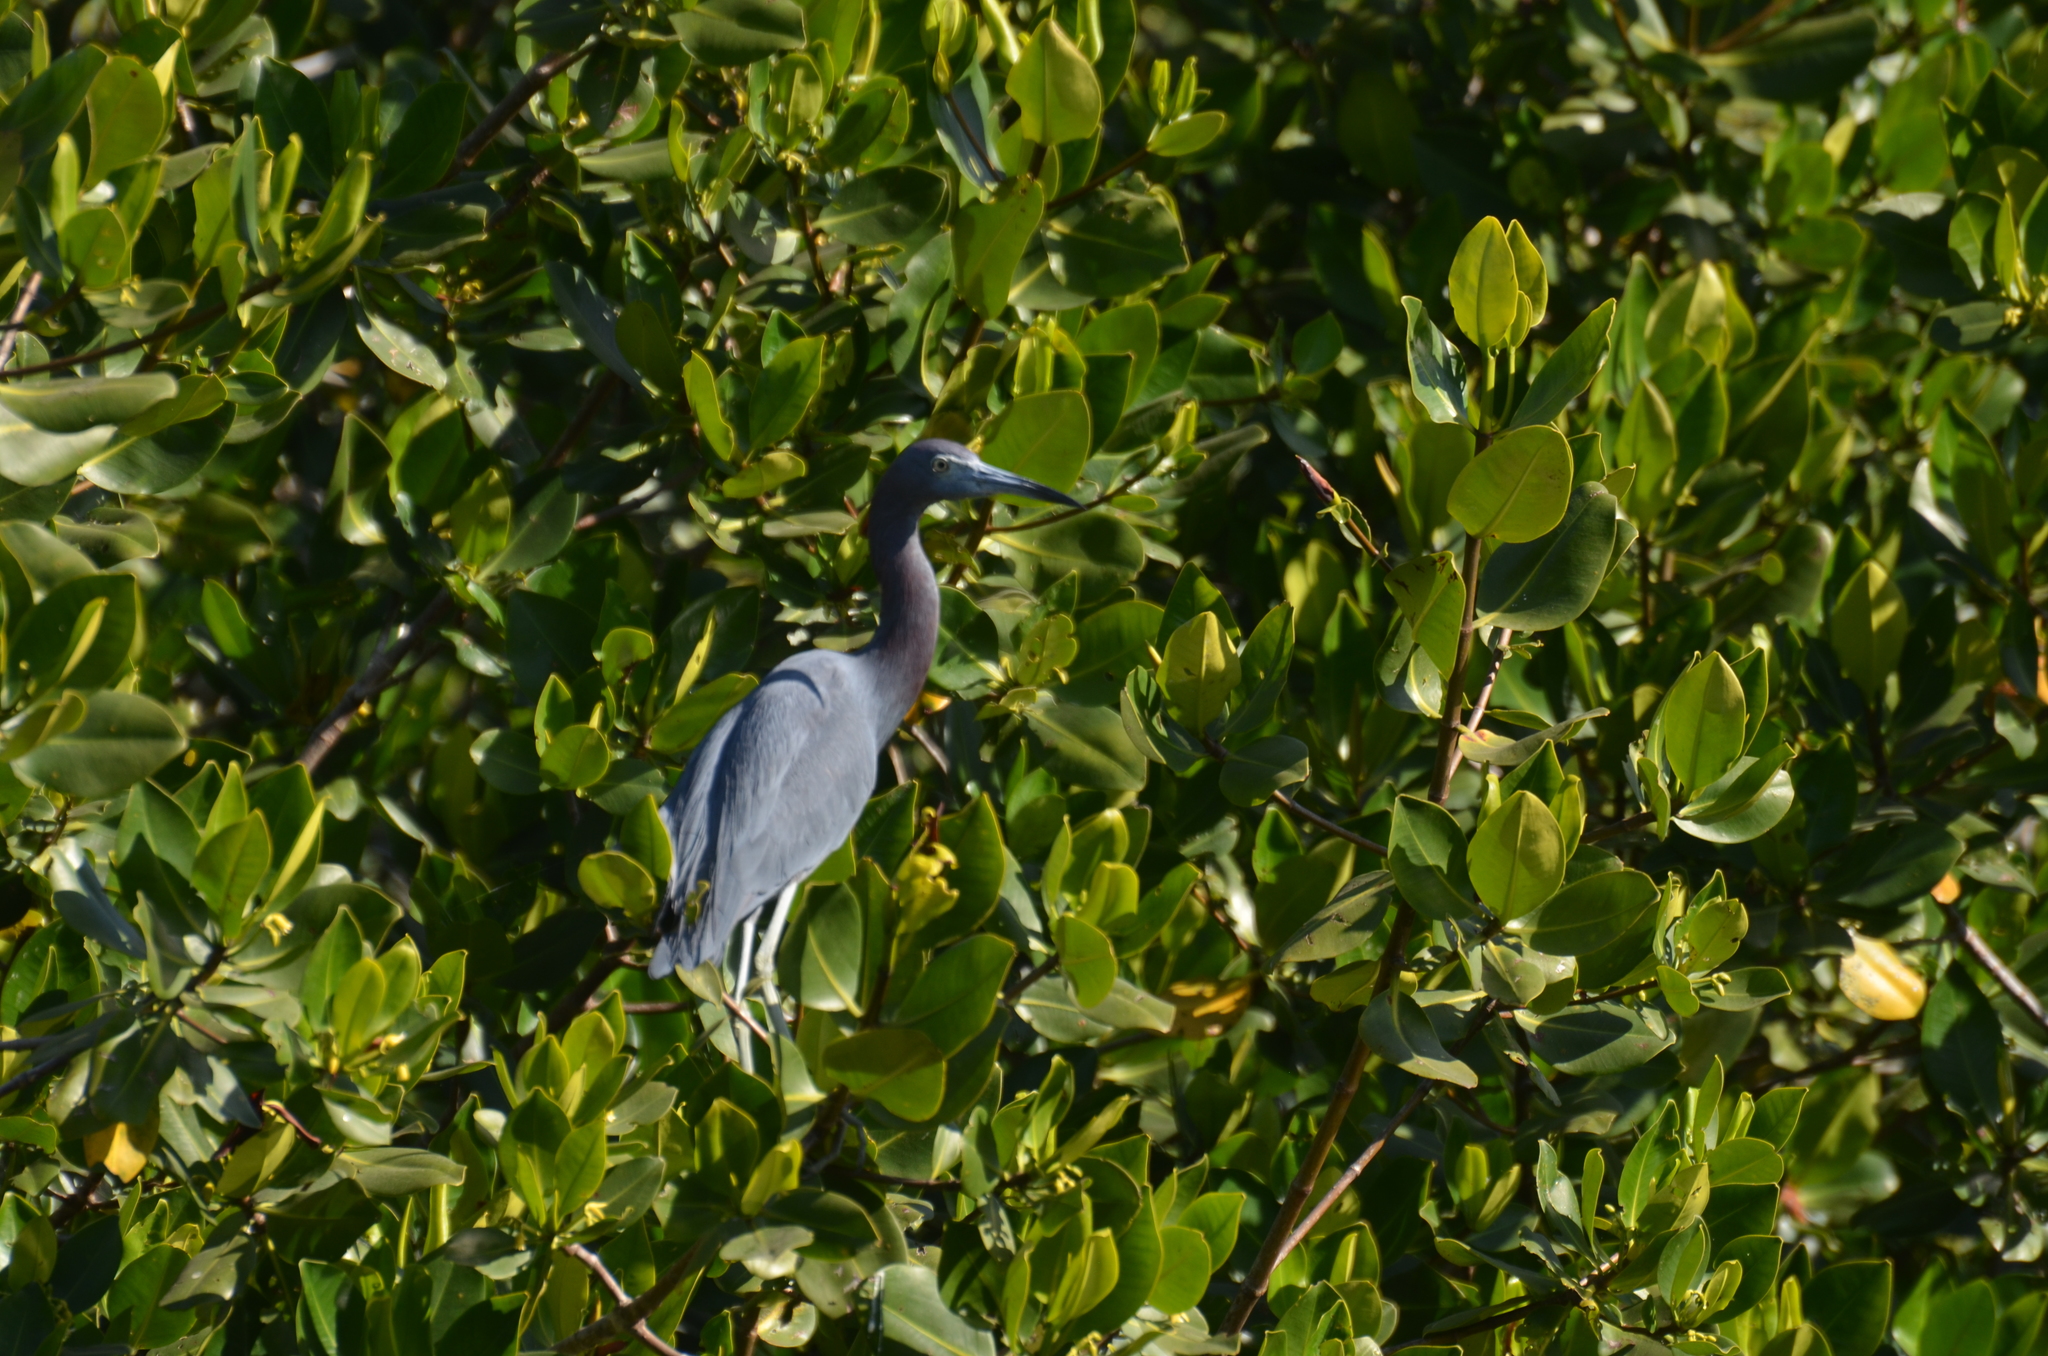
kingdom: Animalia
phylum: Chordata
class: Aves
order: Pelecaniformes
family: Ardeidae
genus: Egretta
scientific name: Egretta caerulea
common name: Little blue heron
